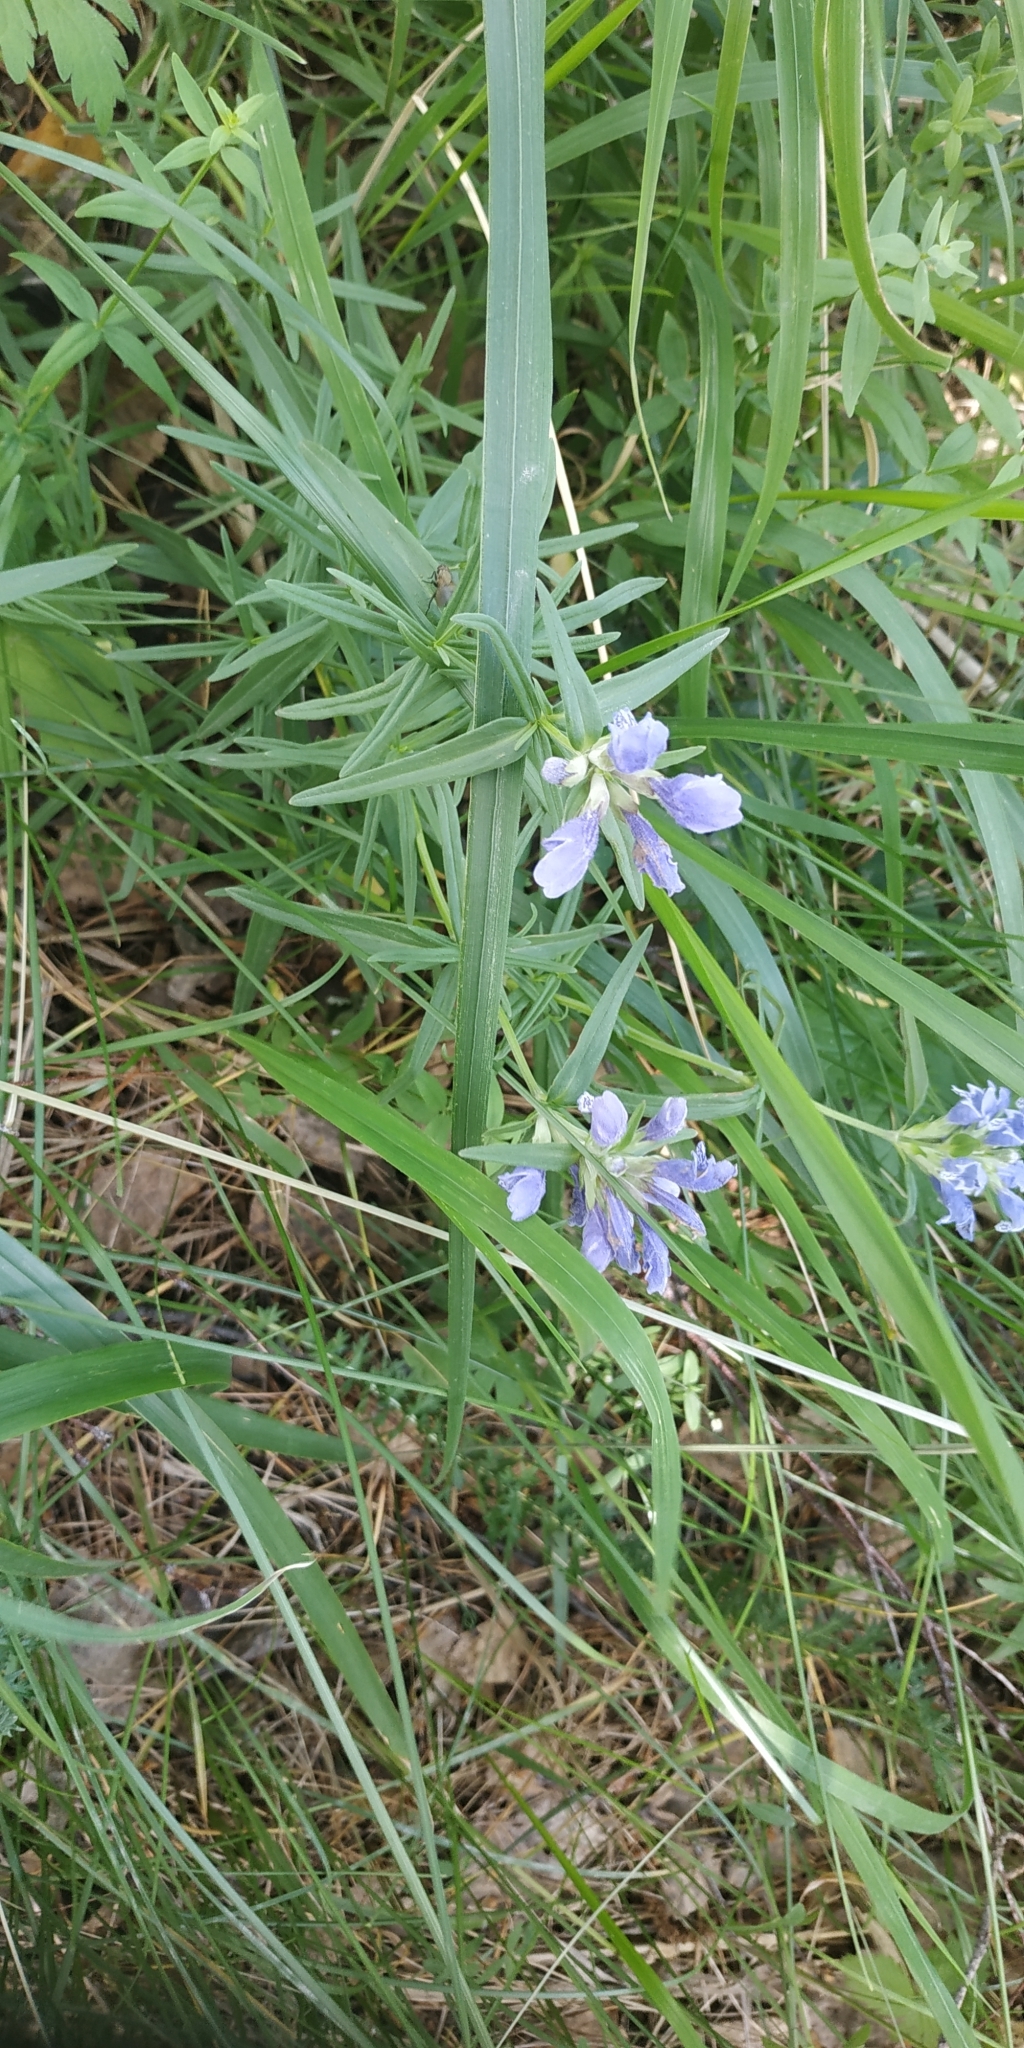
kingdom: Plantae
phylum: Tracheophyta
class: Magnoliopsida
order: Lamiales
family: Lamiaceae
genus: Dracocephalum
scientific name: Dracocephalum ruyschiana
